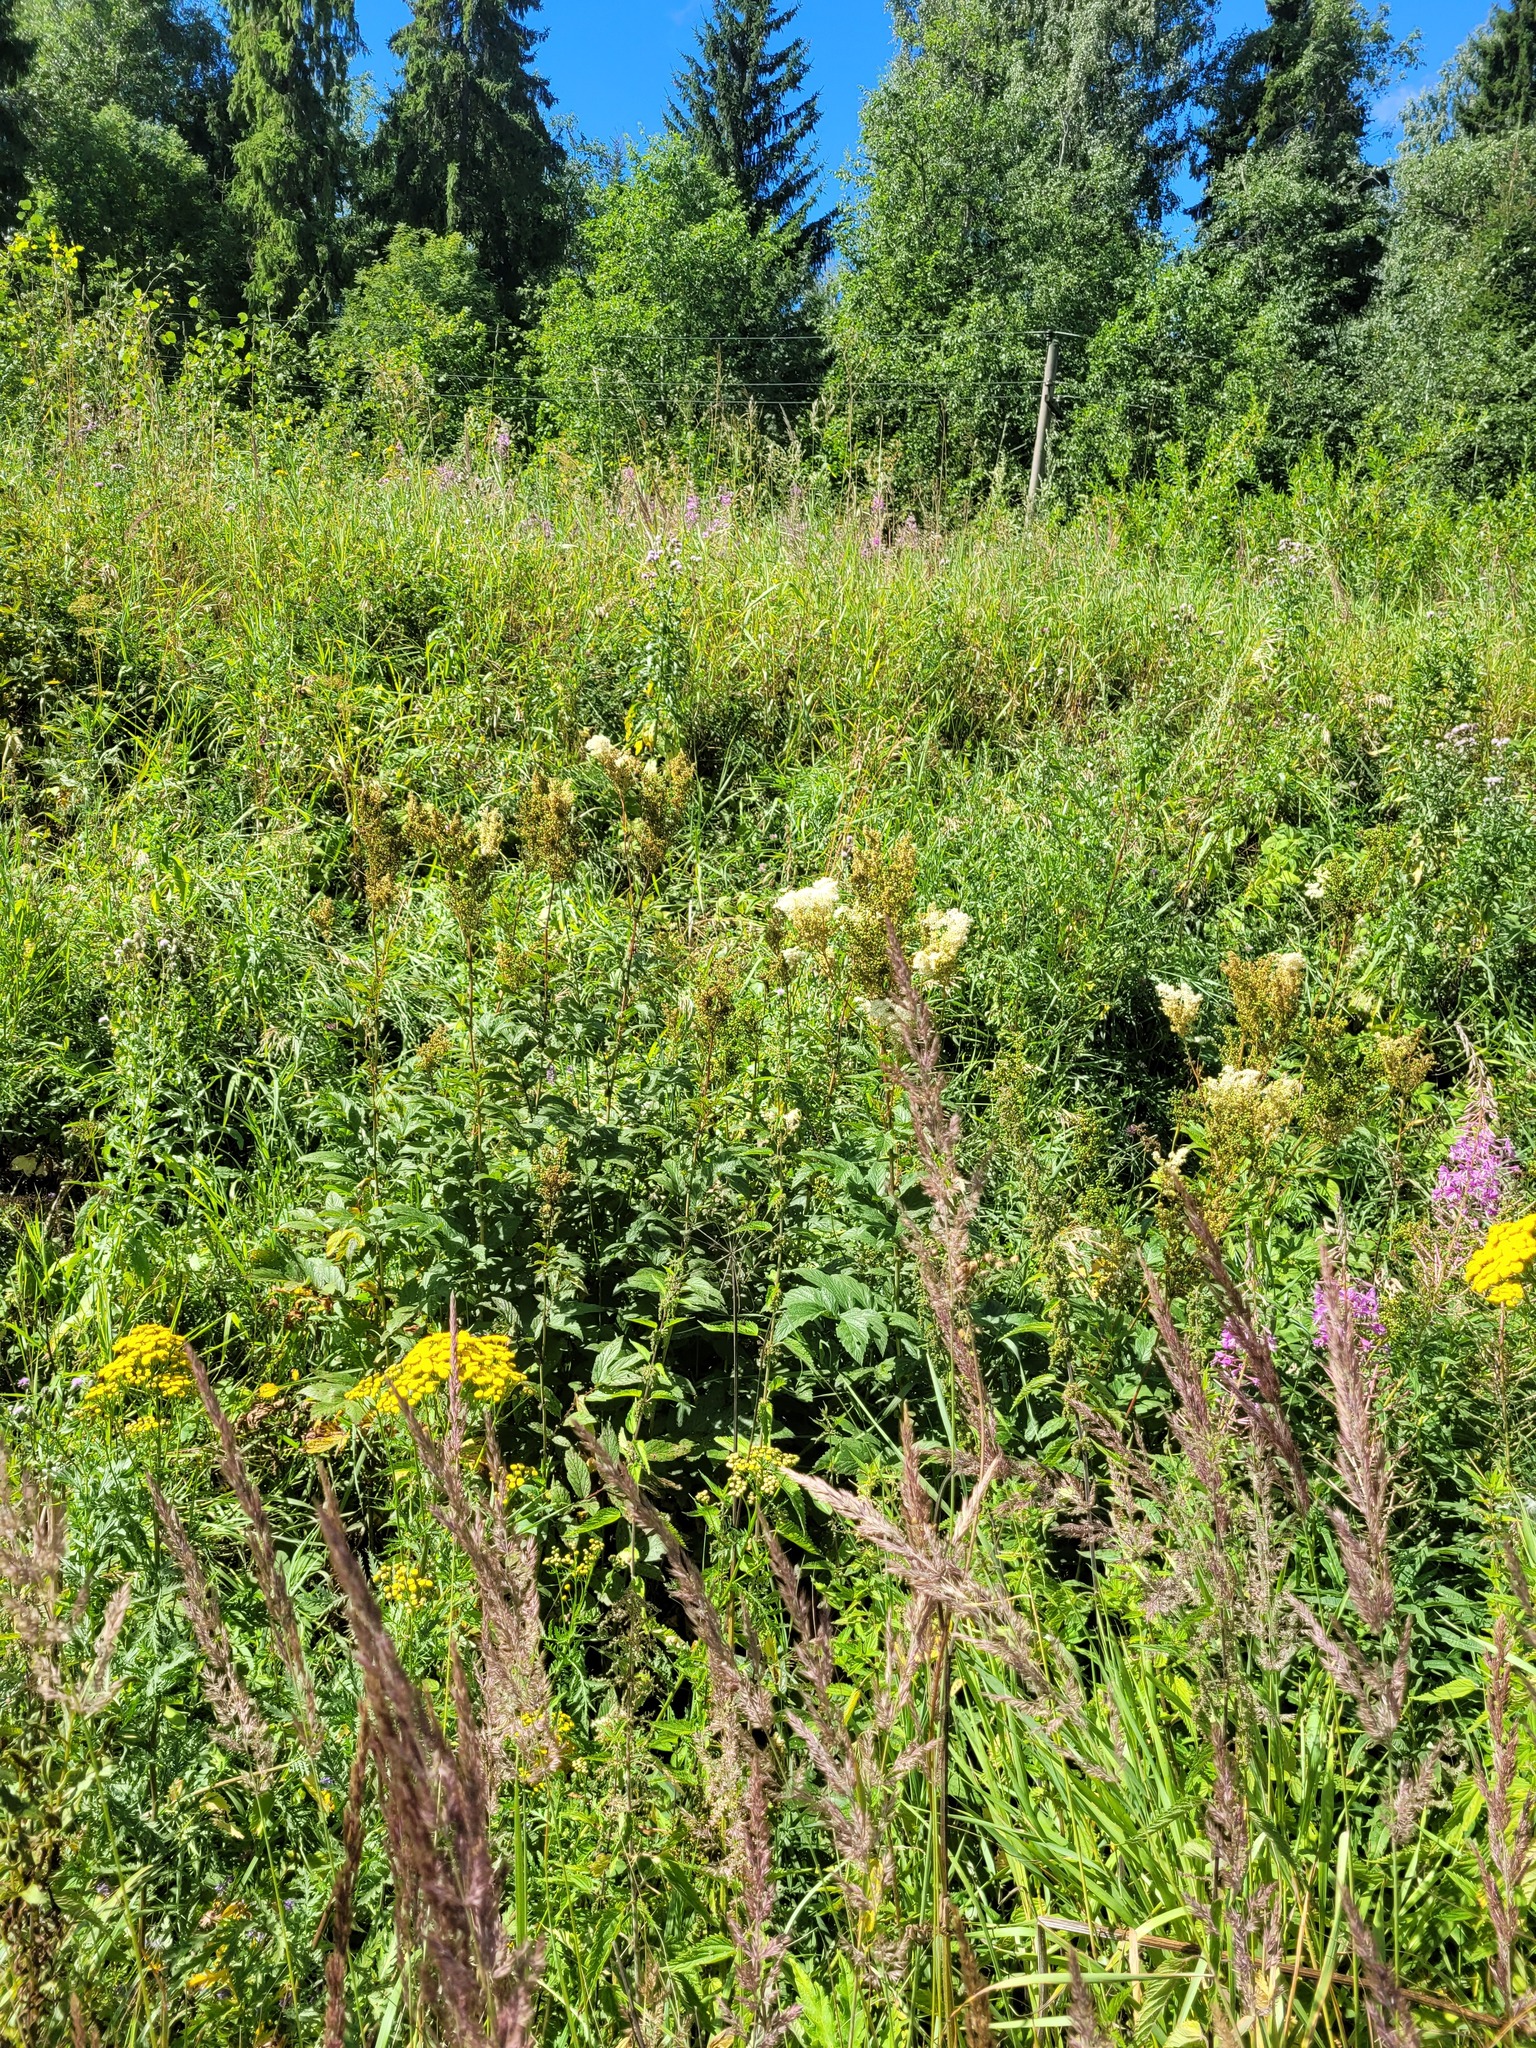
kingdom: Plantae
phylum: Tracheophyta
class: Magnoliopsida
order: Rosales
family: Rosaceae
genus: Filipendula
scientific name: Filipendula ulmaria
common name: Meadowsweet
